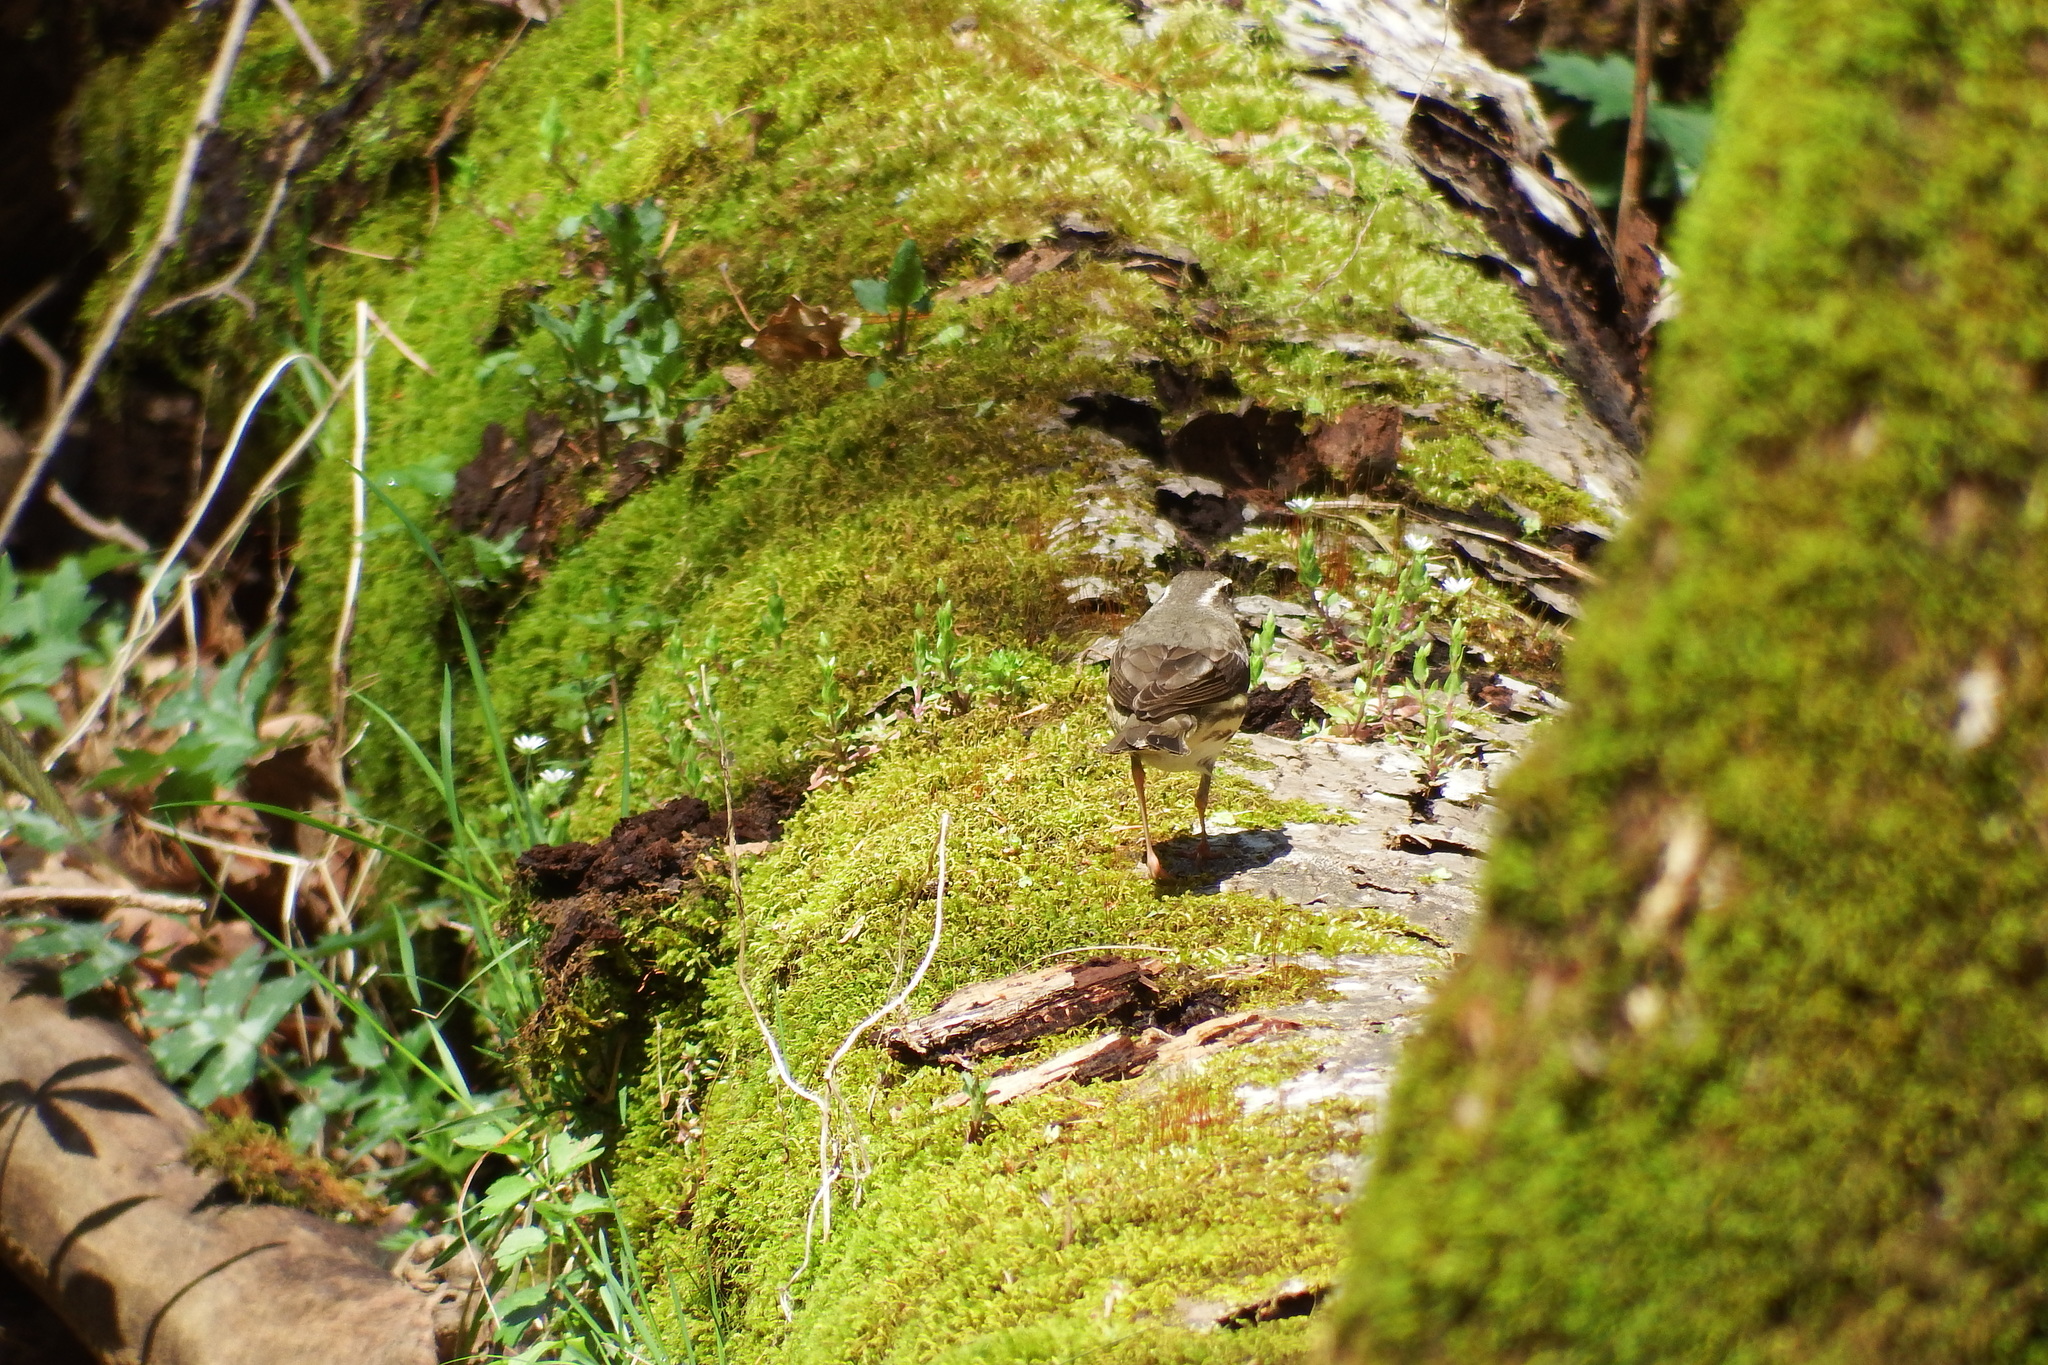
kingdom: Animalia
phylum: Chordata
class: Aves
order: Passeriformes
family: Parulidae
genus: Parkesia
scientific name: Parkesia motacilla
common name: Louisiana waterthrush
